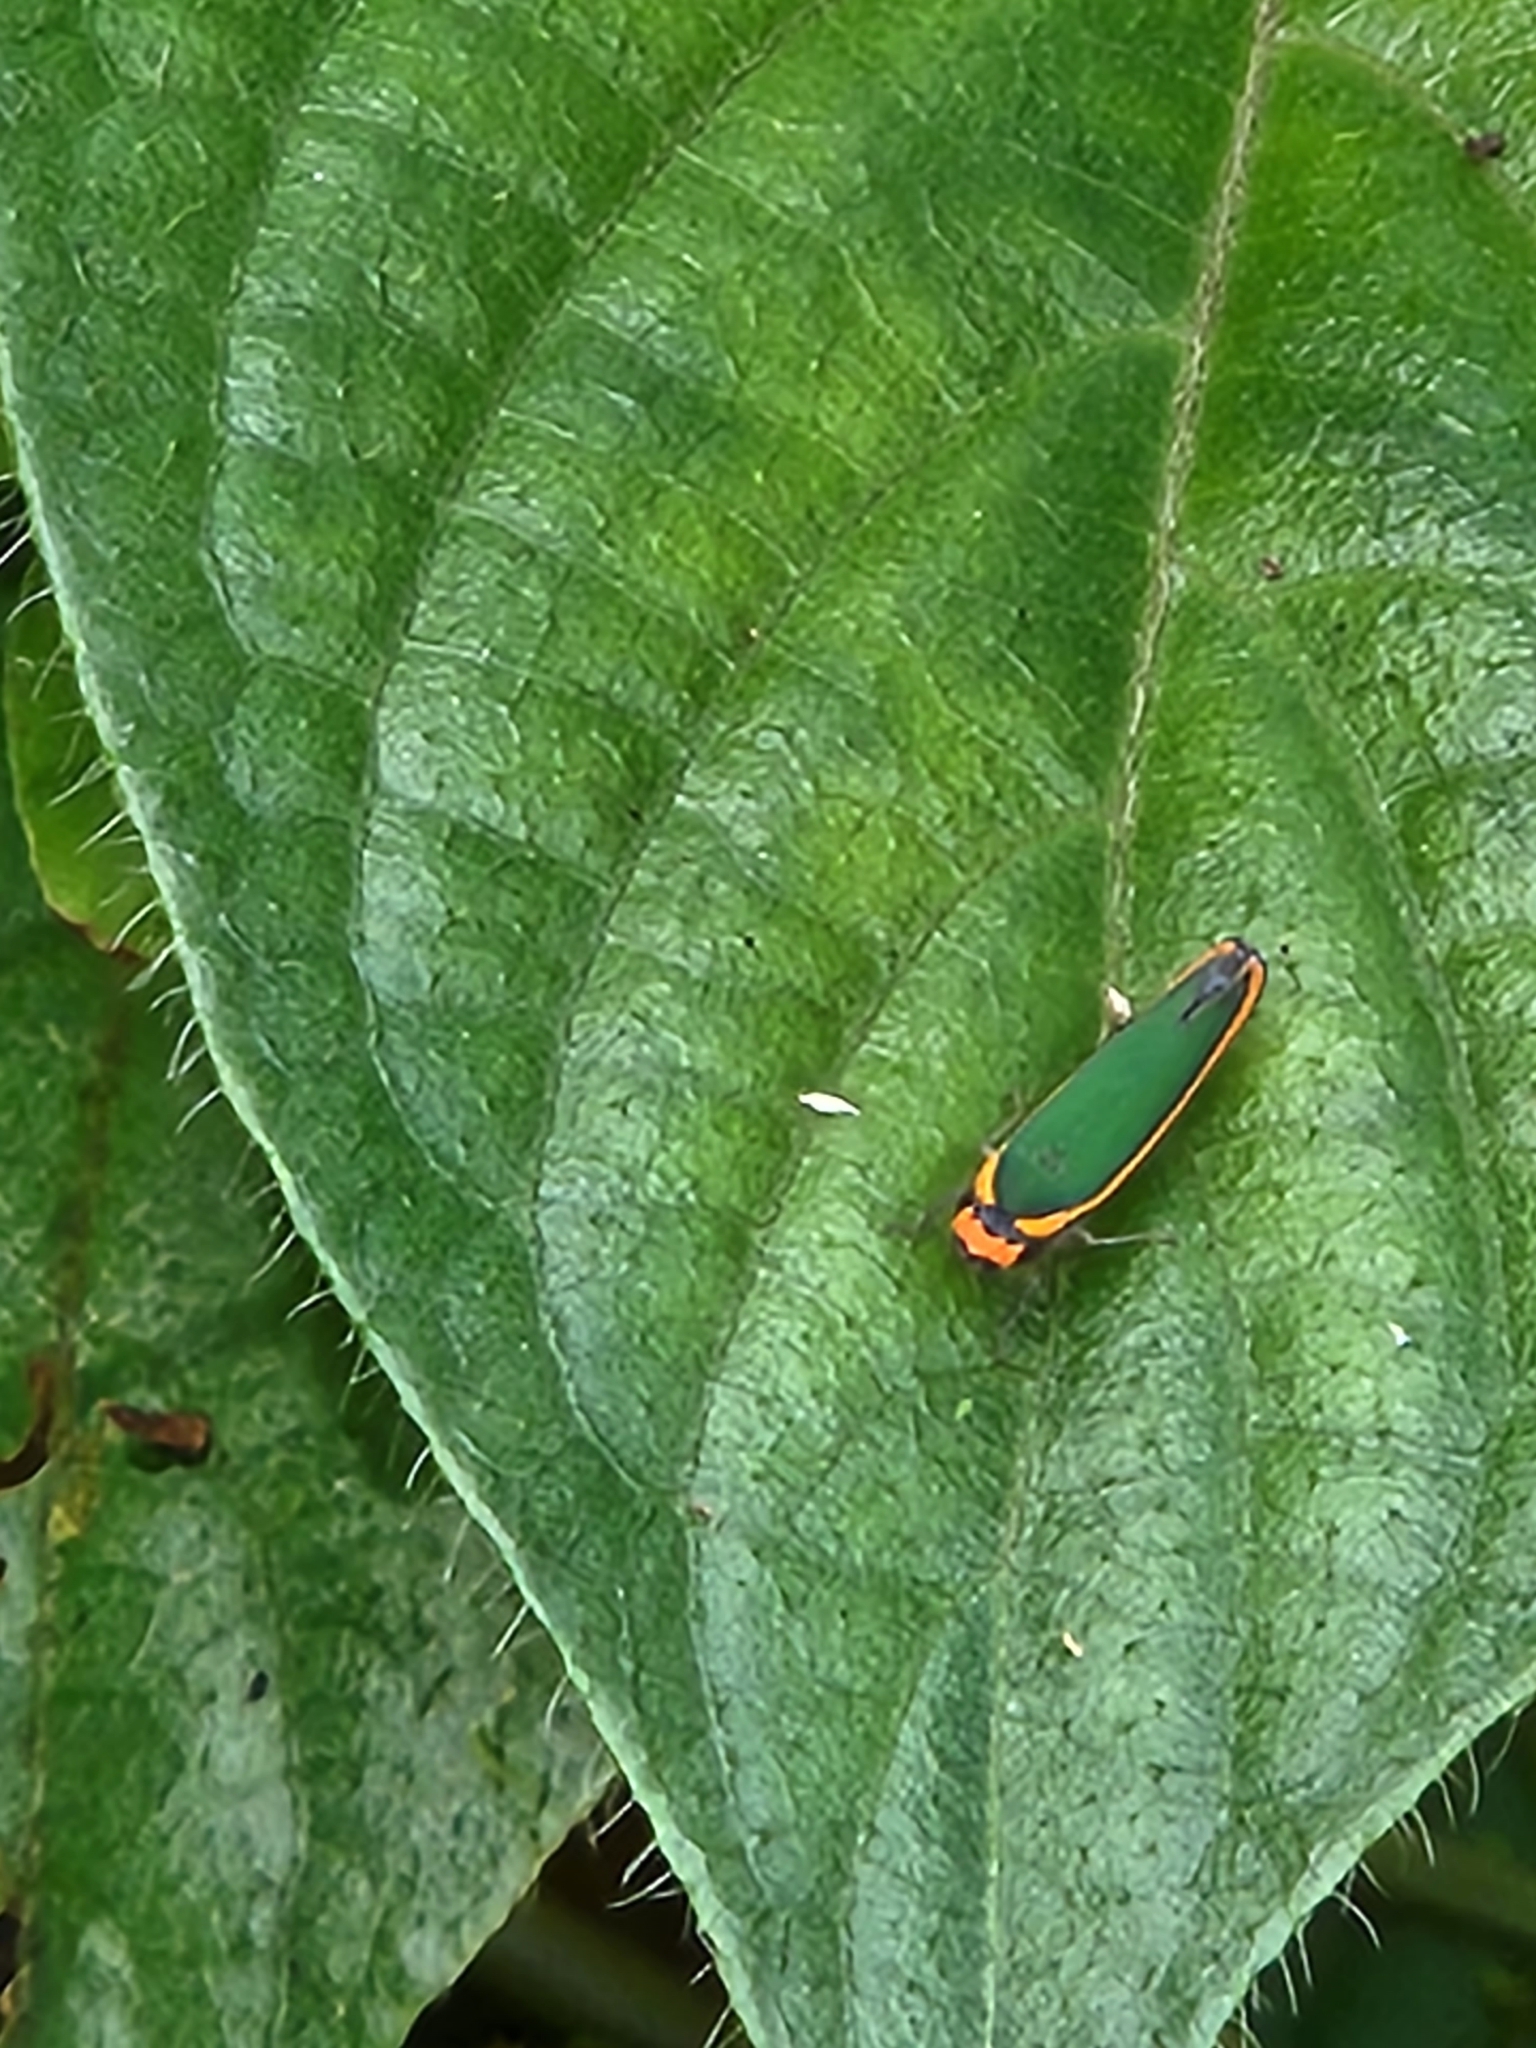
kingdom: Animalia
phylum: Arthropoda
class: Insecta
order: Hemiptera
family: Cicadellidae
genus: Stephanolla
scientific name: Stephanolla remota
